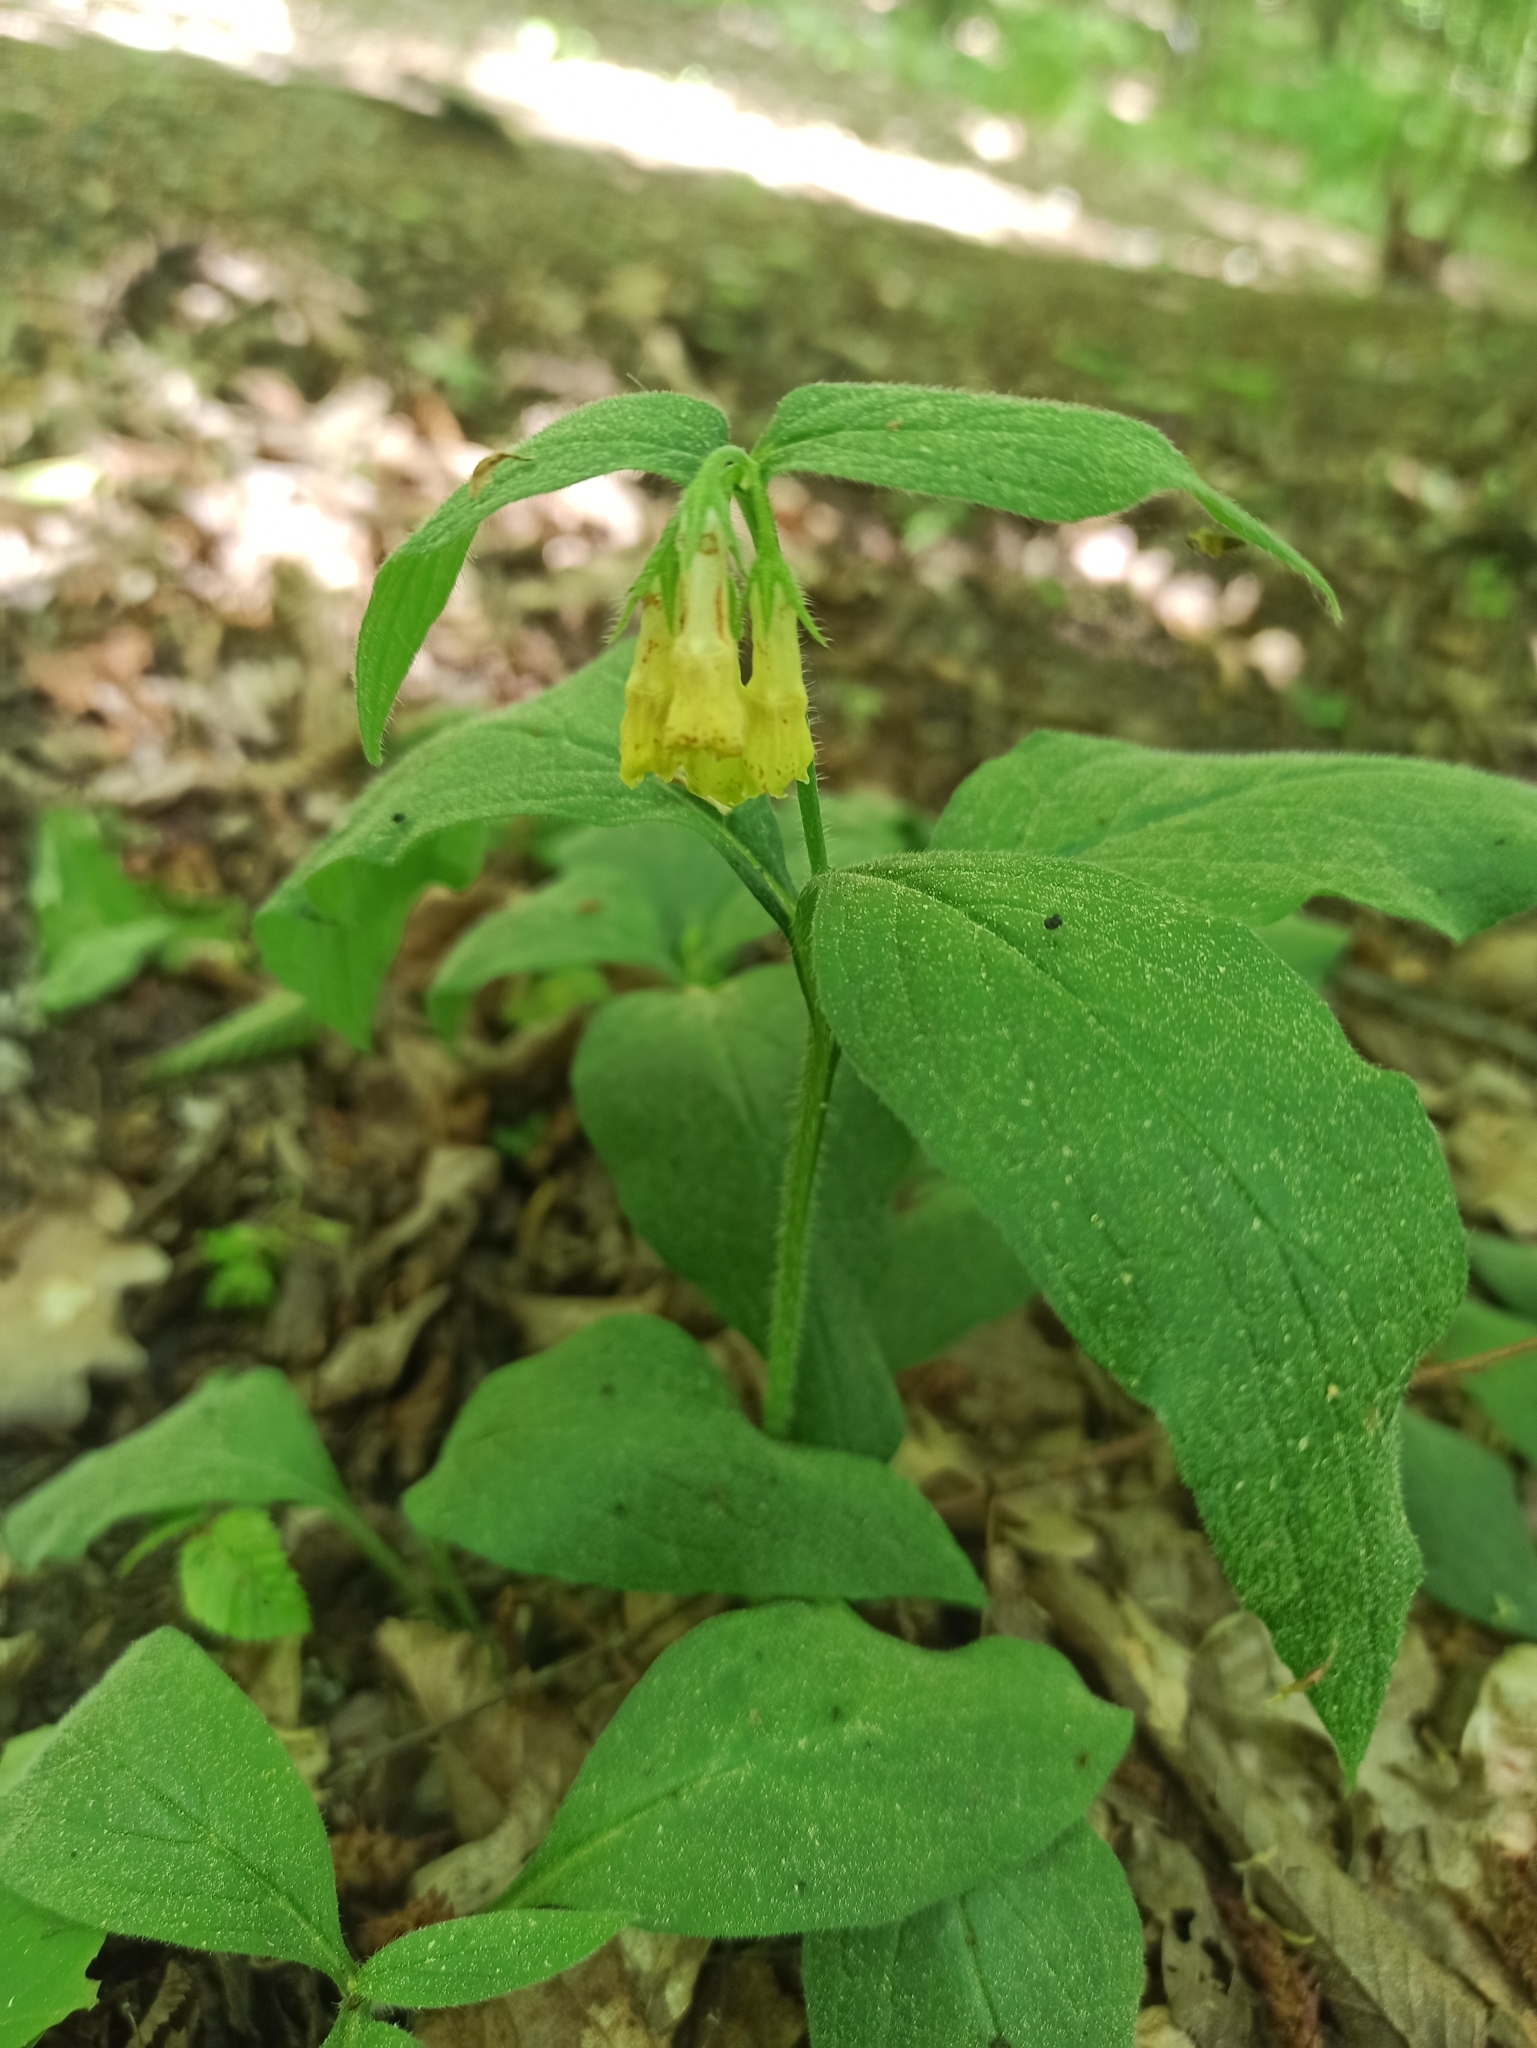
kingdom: Plantae
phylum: Tracheophyta
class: Magnoliopsida
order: Boraginales
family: Boraginaceae
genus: Symphytum
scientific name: Symphytum tuberosum
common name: Tuberous comfrey
